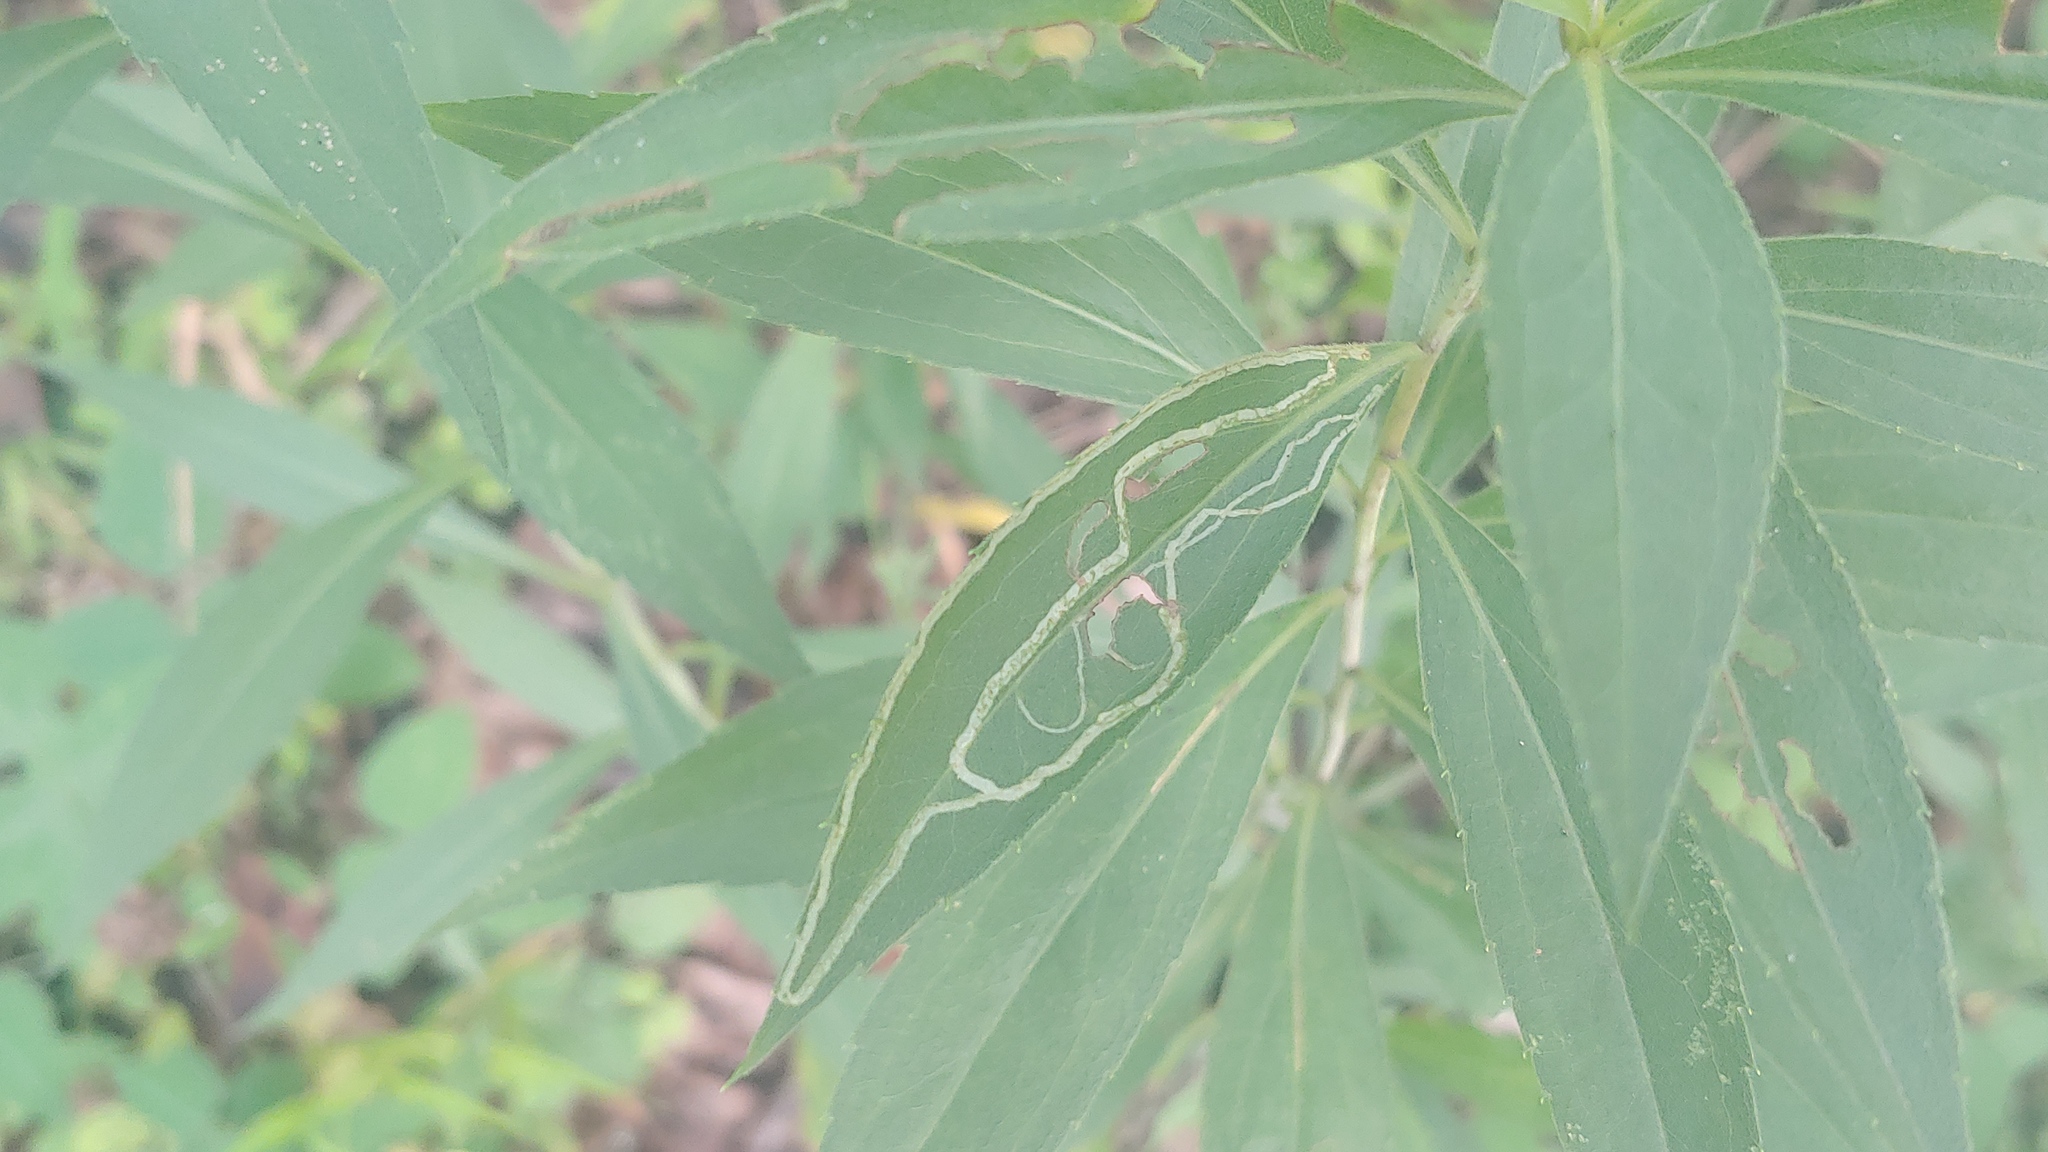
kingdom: Animalia
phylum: Arthropoda
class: Insecta
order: Diptera
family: Agromyzidae
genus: Ophiomyia
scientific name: Ophiomyia maura
